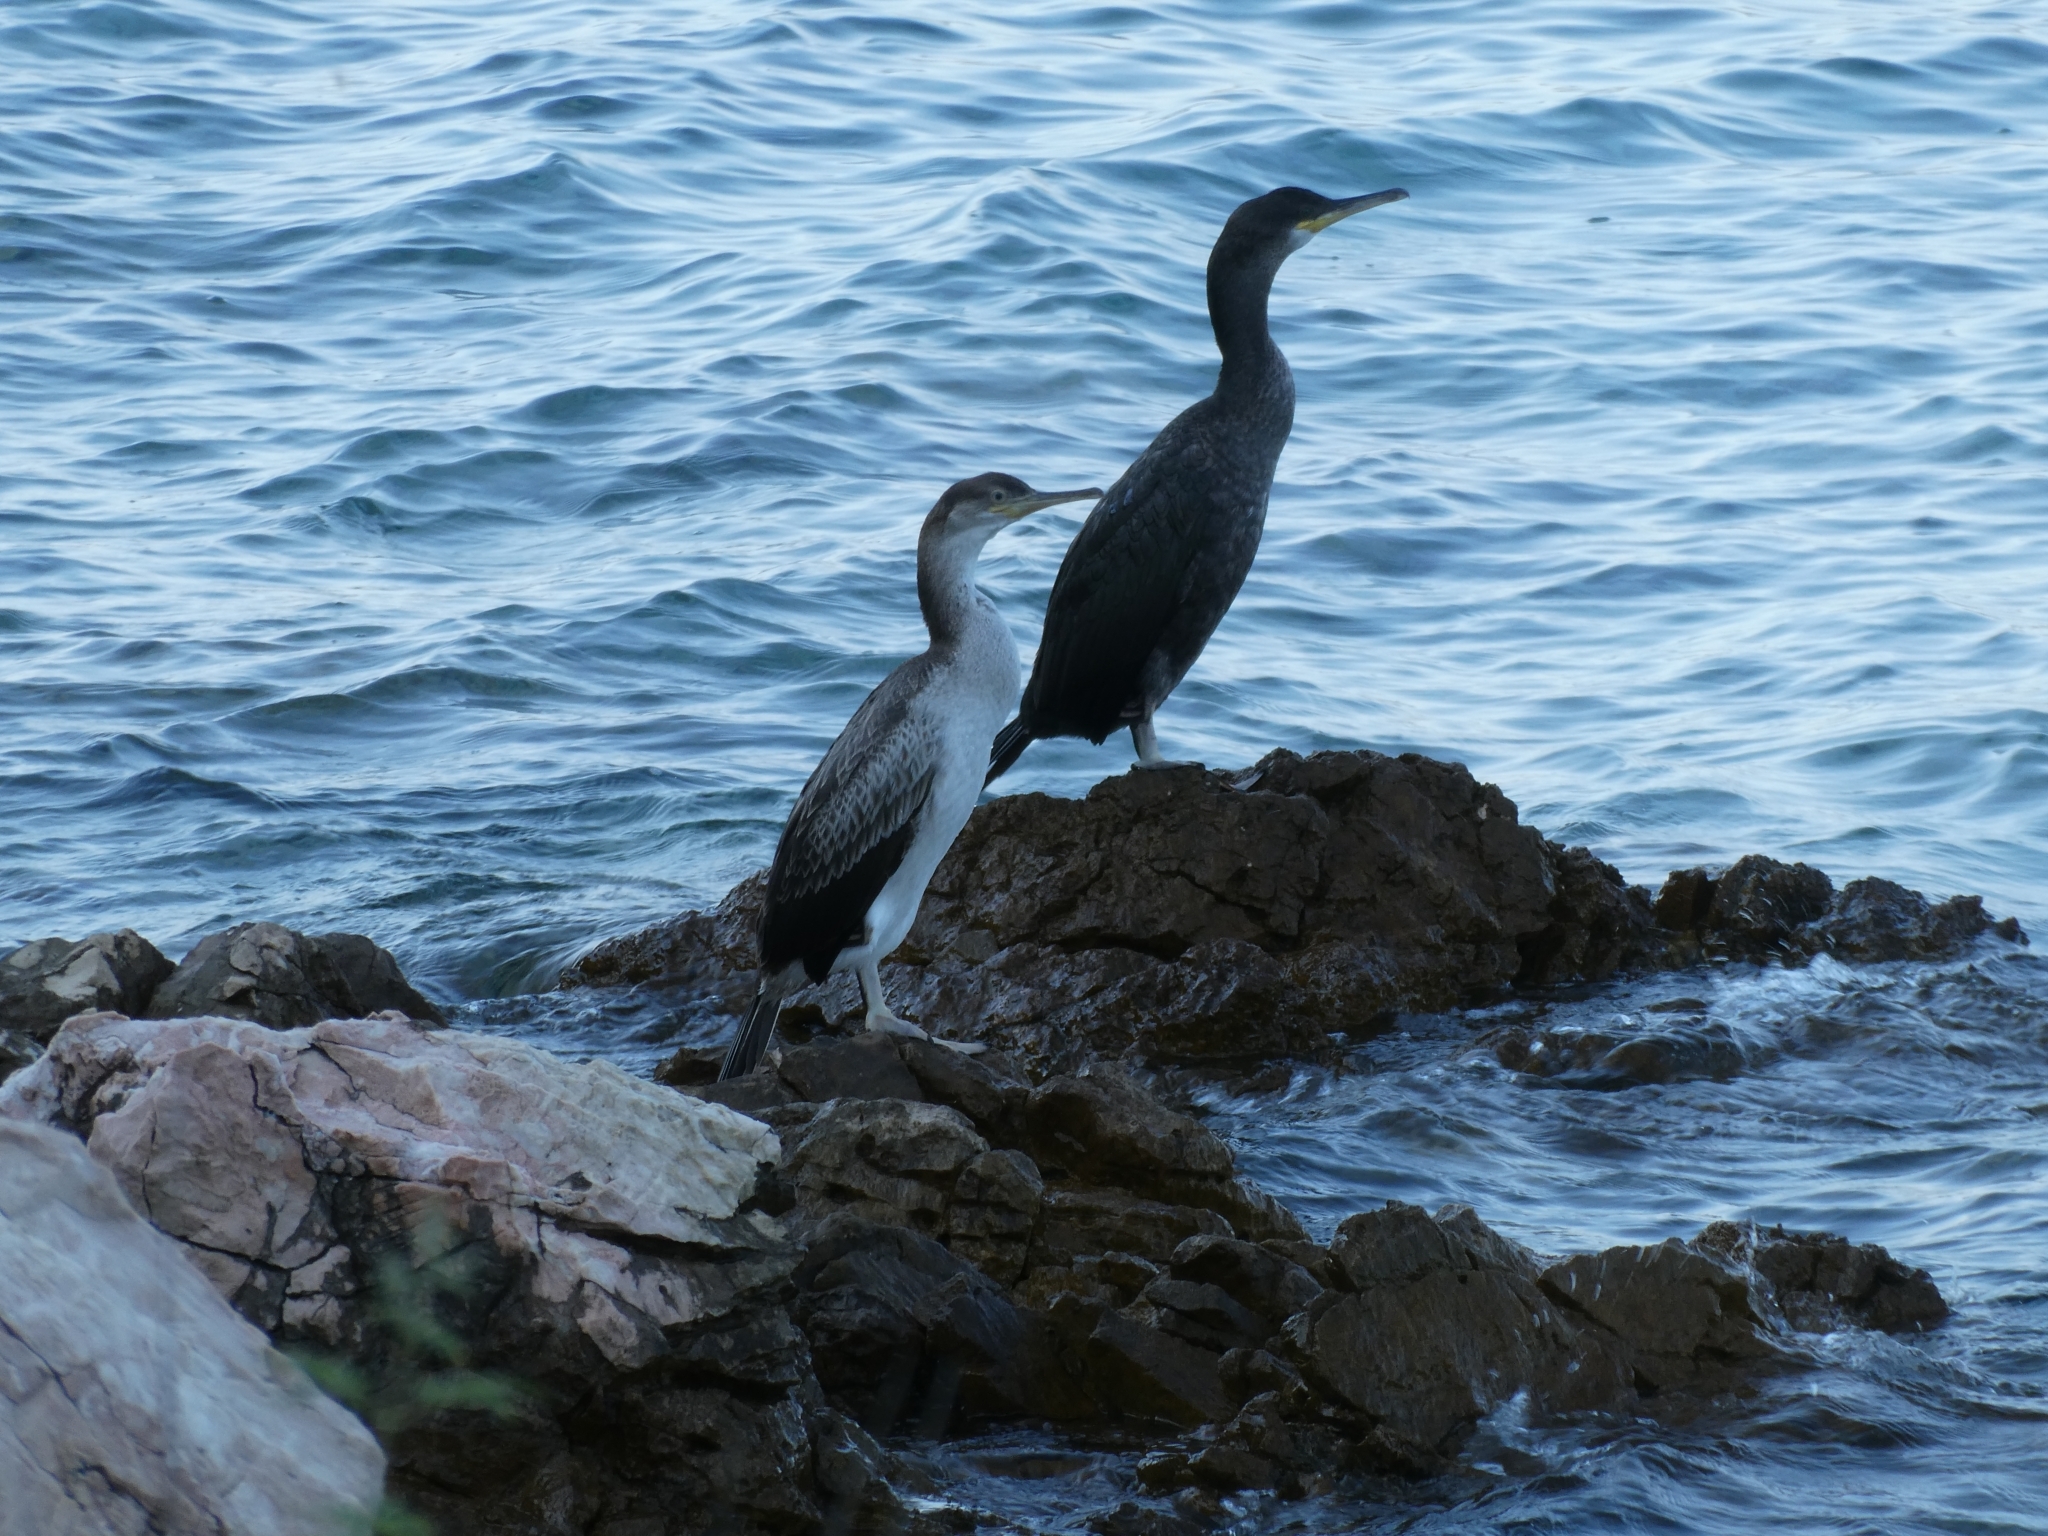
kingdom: Animalia
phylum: Chordata
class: Aves
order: Suliformes
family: Phalacrocoracidae
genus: Phalacrocorax
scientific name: Phalacrocorax aristotelis
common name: European shag
